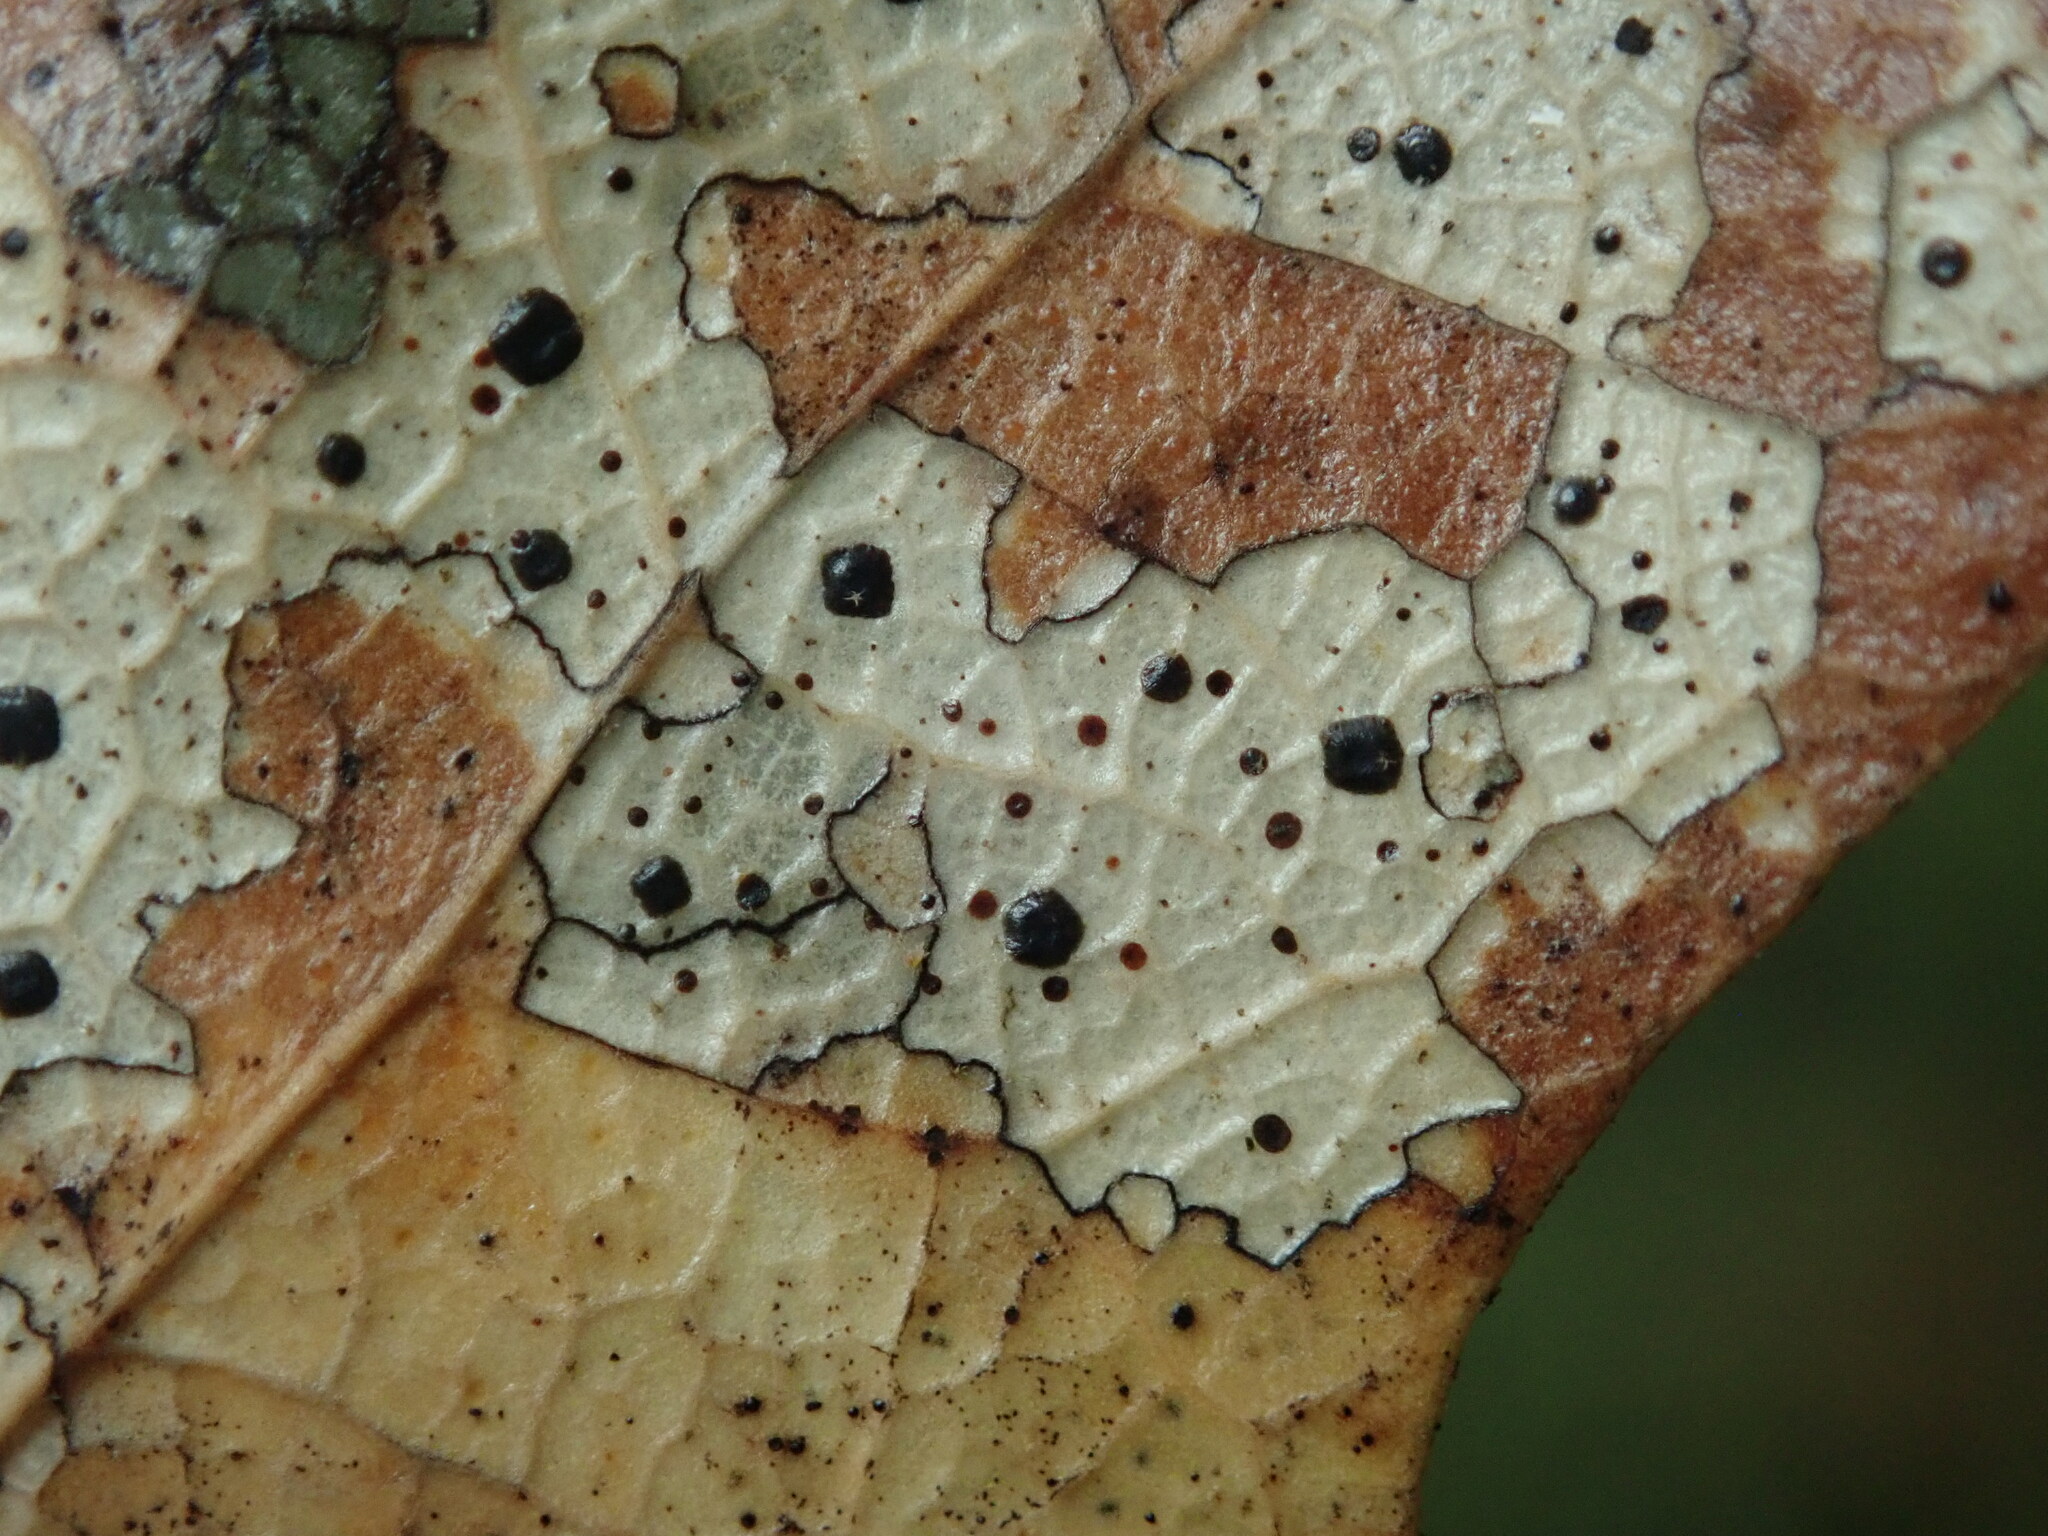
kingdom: Fungi
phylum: Ascomycota
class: Leotiomycetes
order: Rhytismatales
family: Rhytismataceae
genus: Coccomyces
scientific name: Coccomyces dentatus
